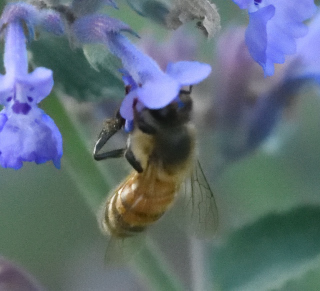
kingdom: Animalia
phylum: Arthropoda
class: Insecta
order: Hymenoptera
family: Apidae
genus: Apis
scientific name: Apis mellifera
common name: Honey bee
